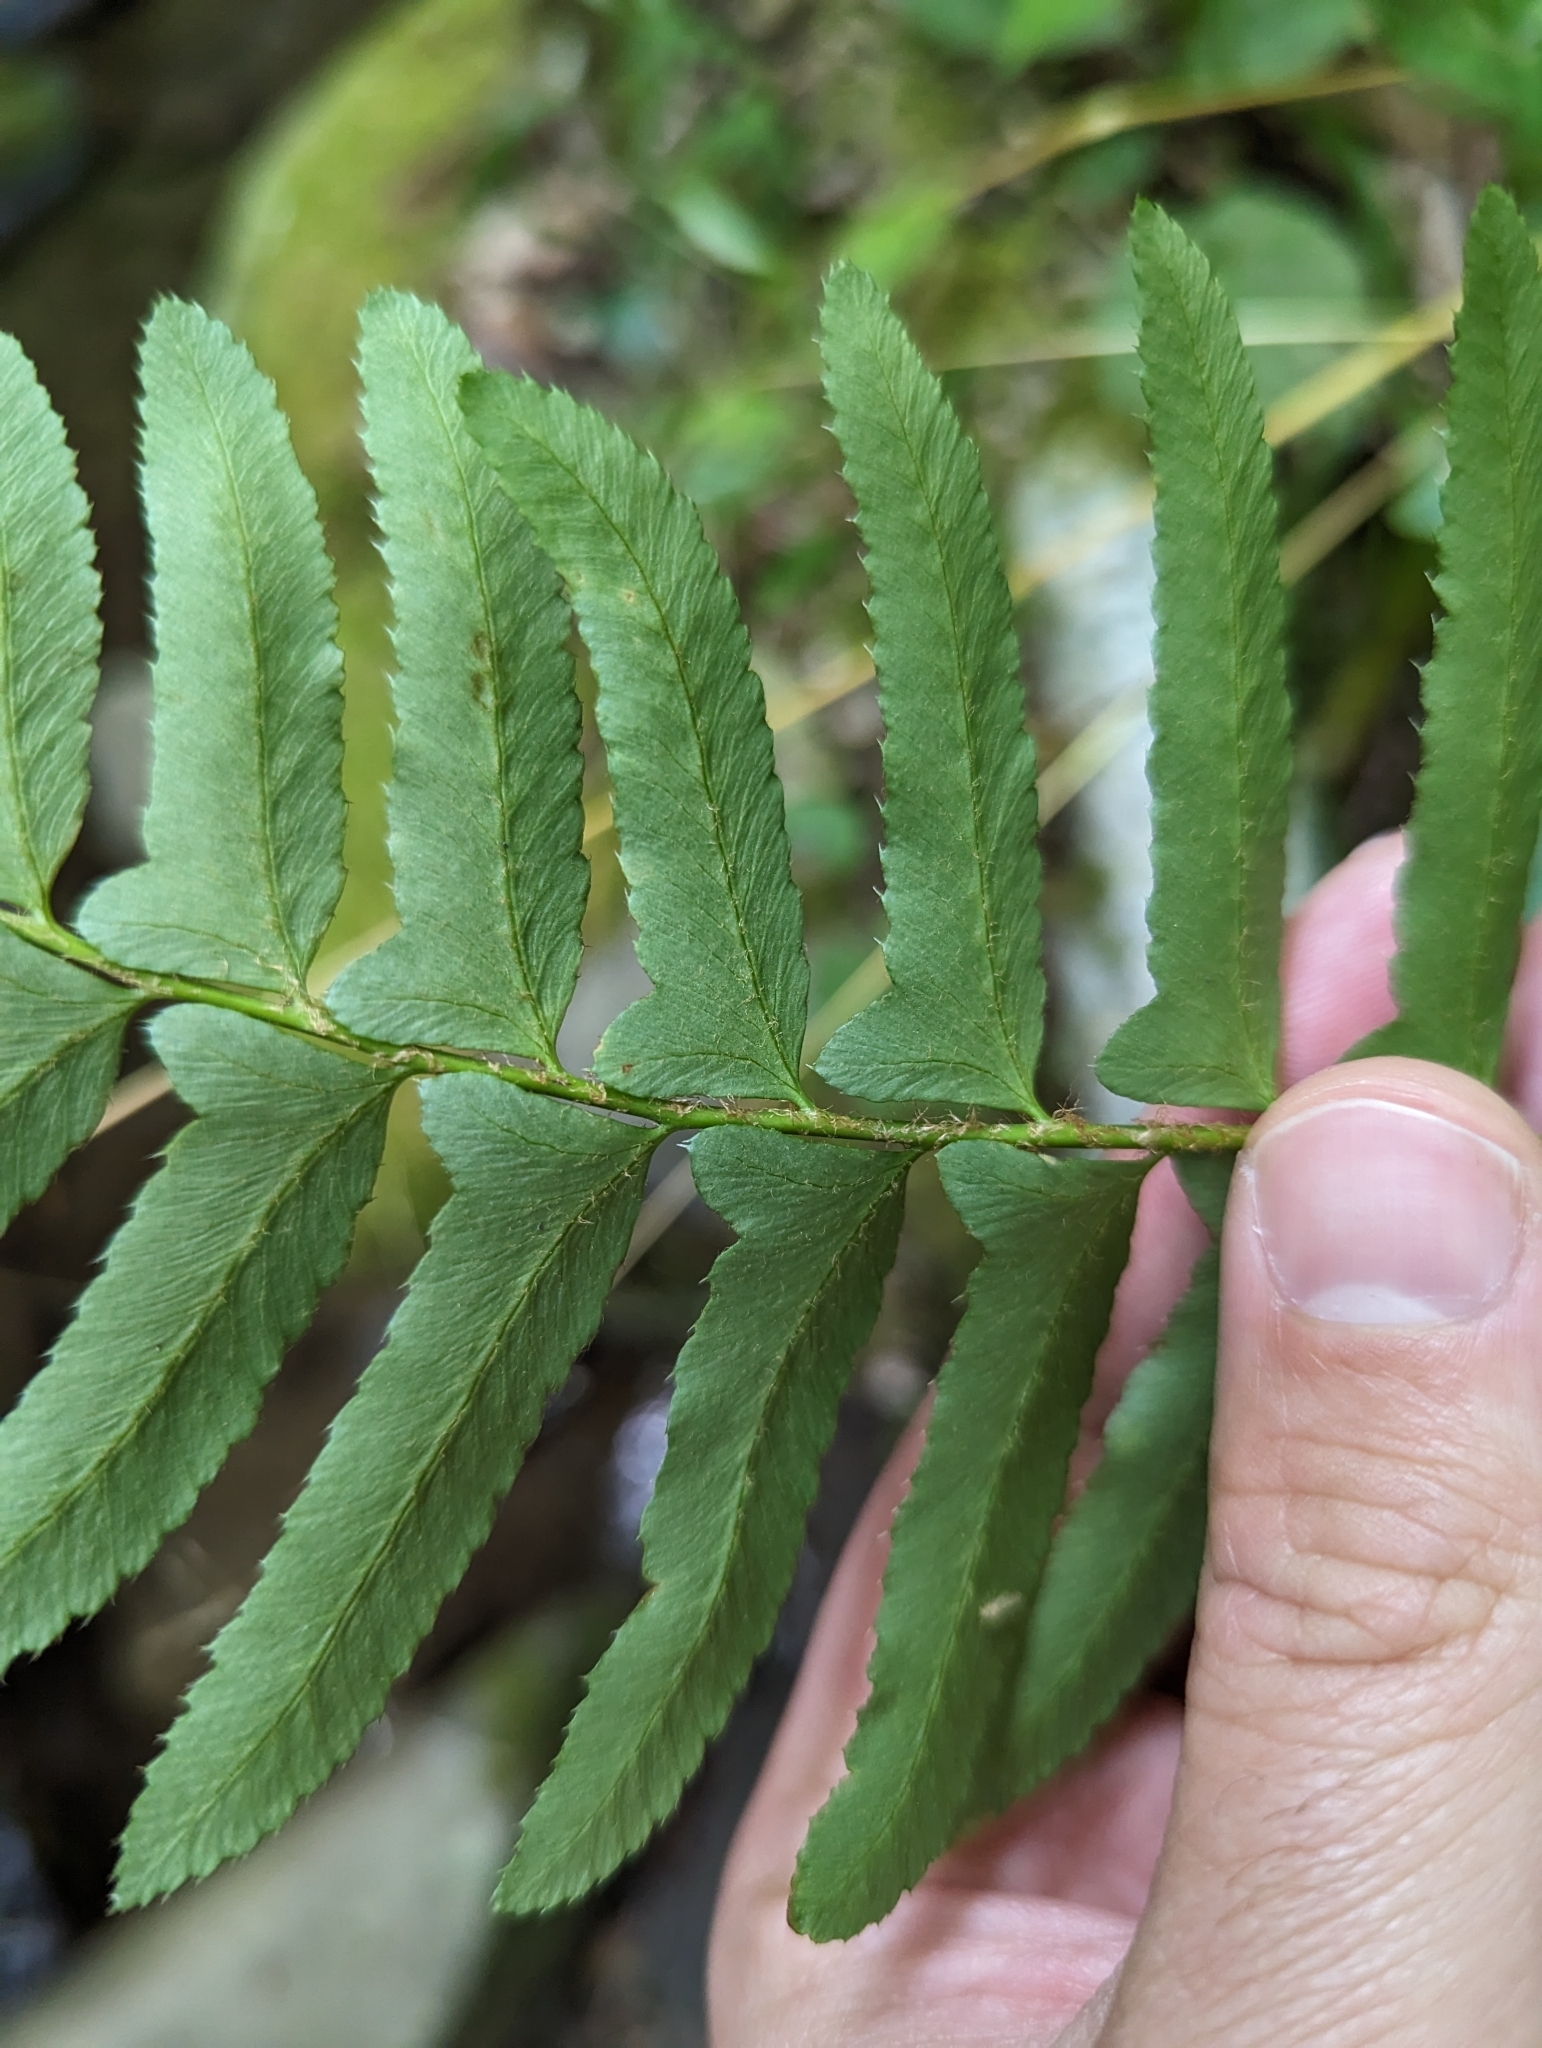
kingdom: Plantae
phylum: Tracheophyta
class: Polypodiopsida
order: Polypodiales
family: Dryopteridaceae
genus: Polystichum
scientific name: Polystichum acrostichoides
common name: Christmas fern
